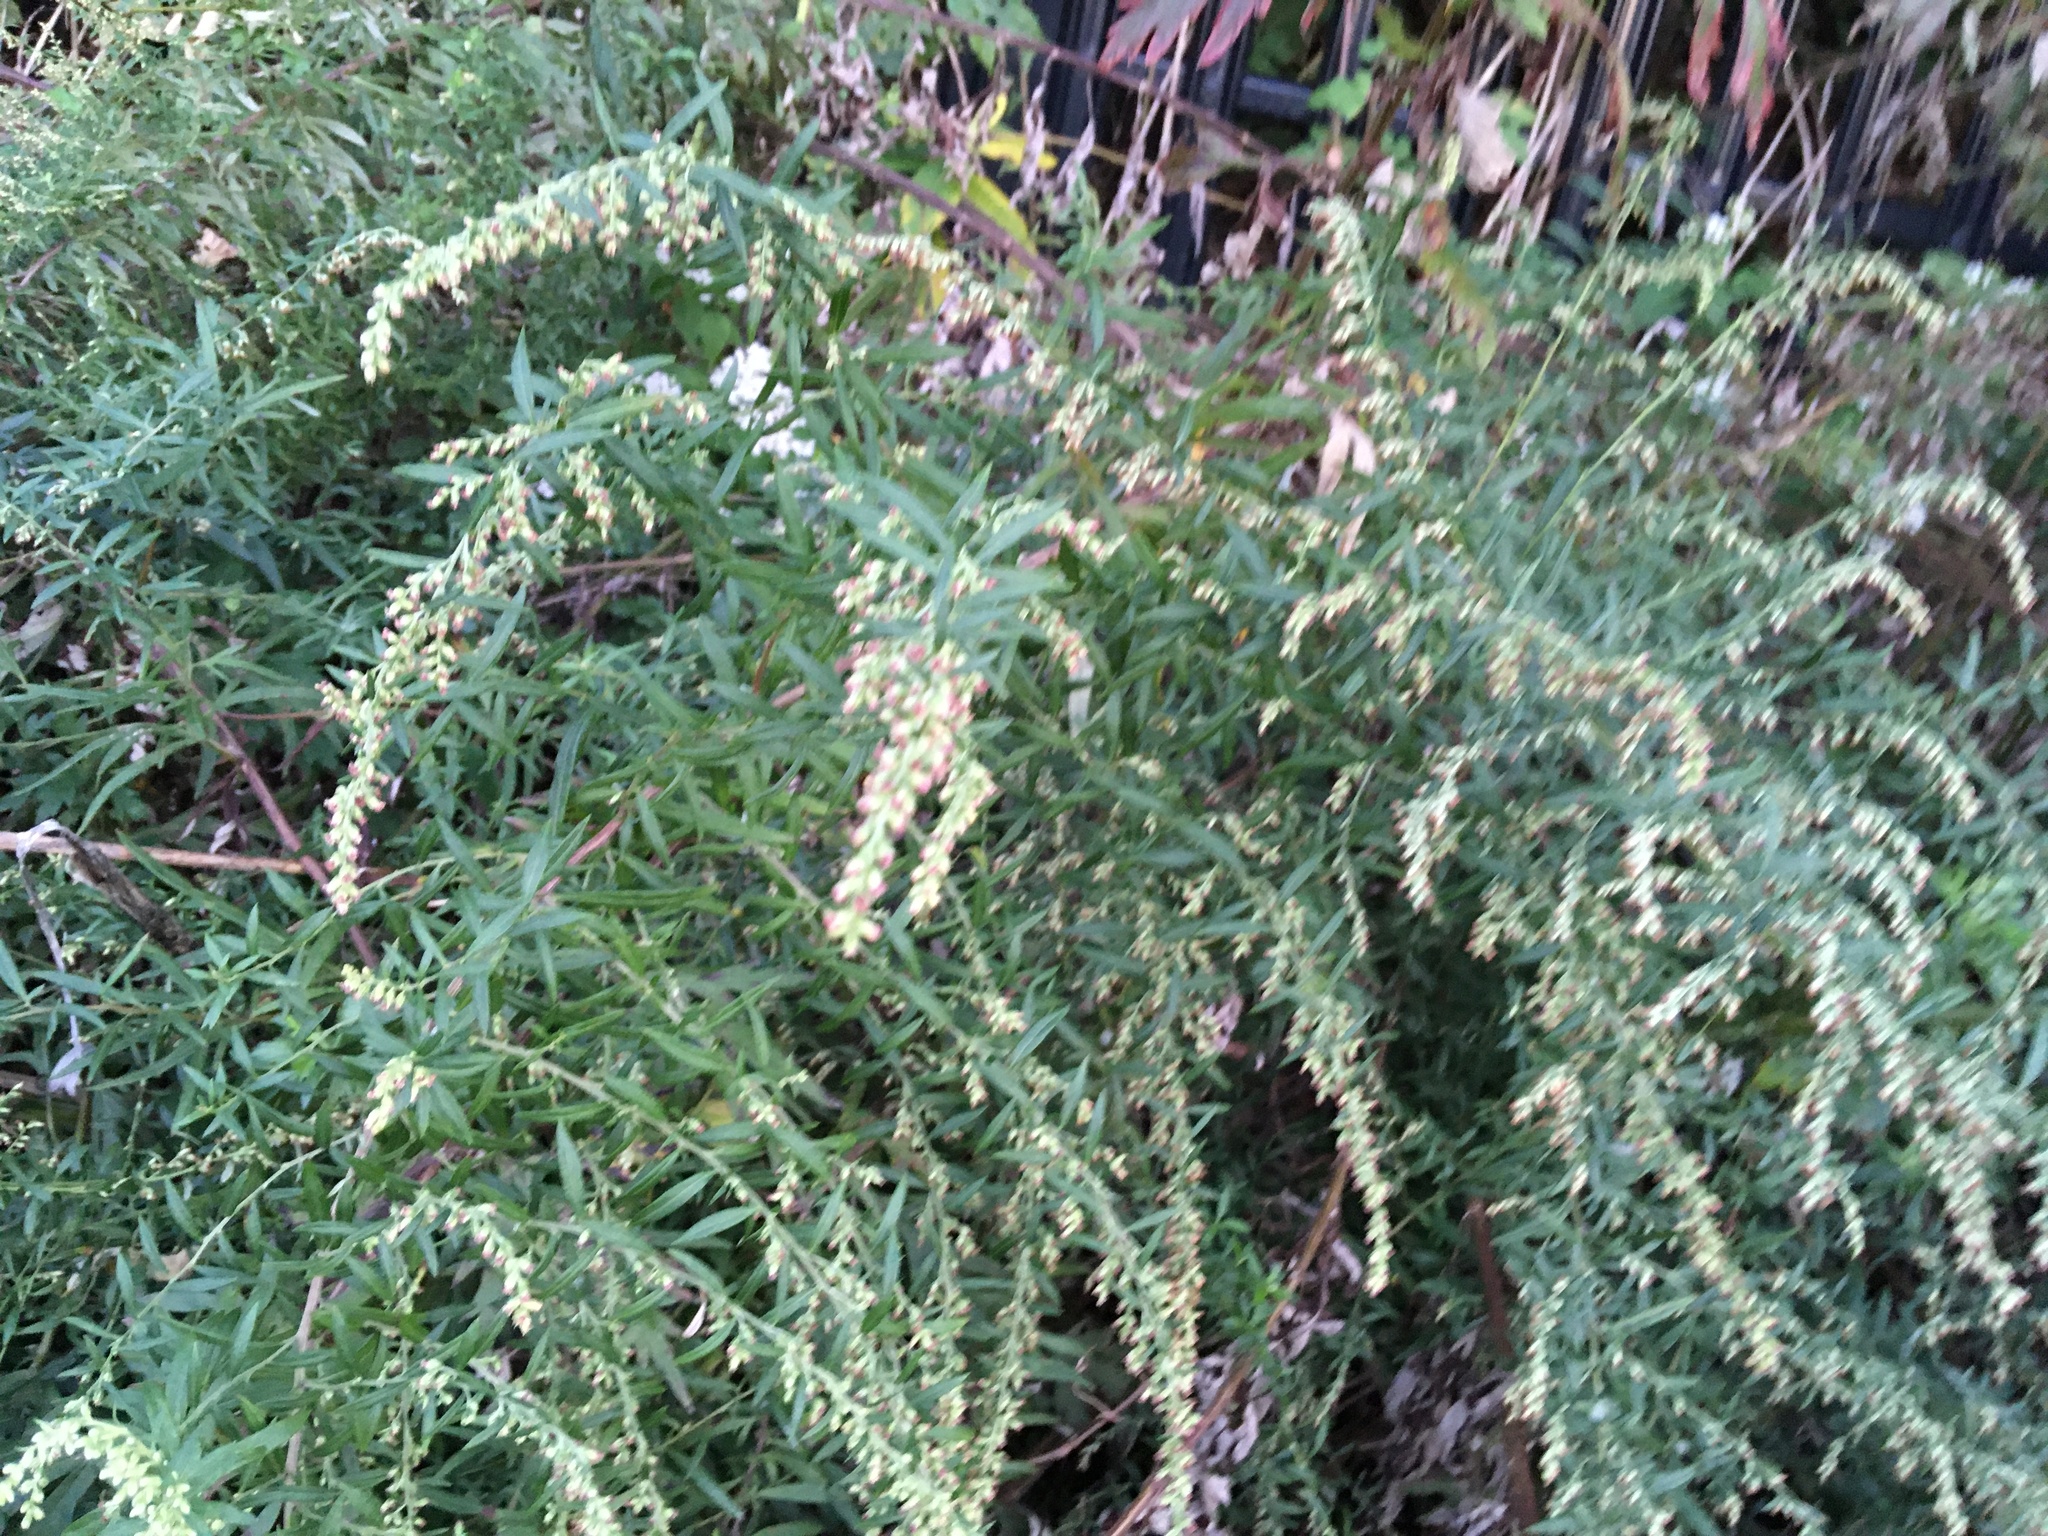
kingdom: Plantae
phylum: Tracheophyta
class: Magnoliopsida
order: Asterales
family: Asteraceae
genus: Artemisia
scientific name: Artemisia vulgaris
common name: Mugwort
